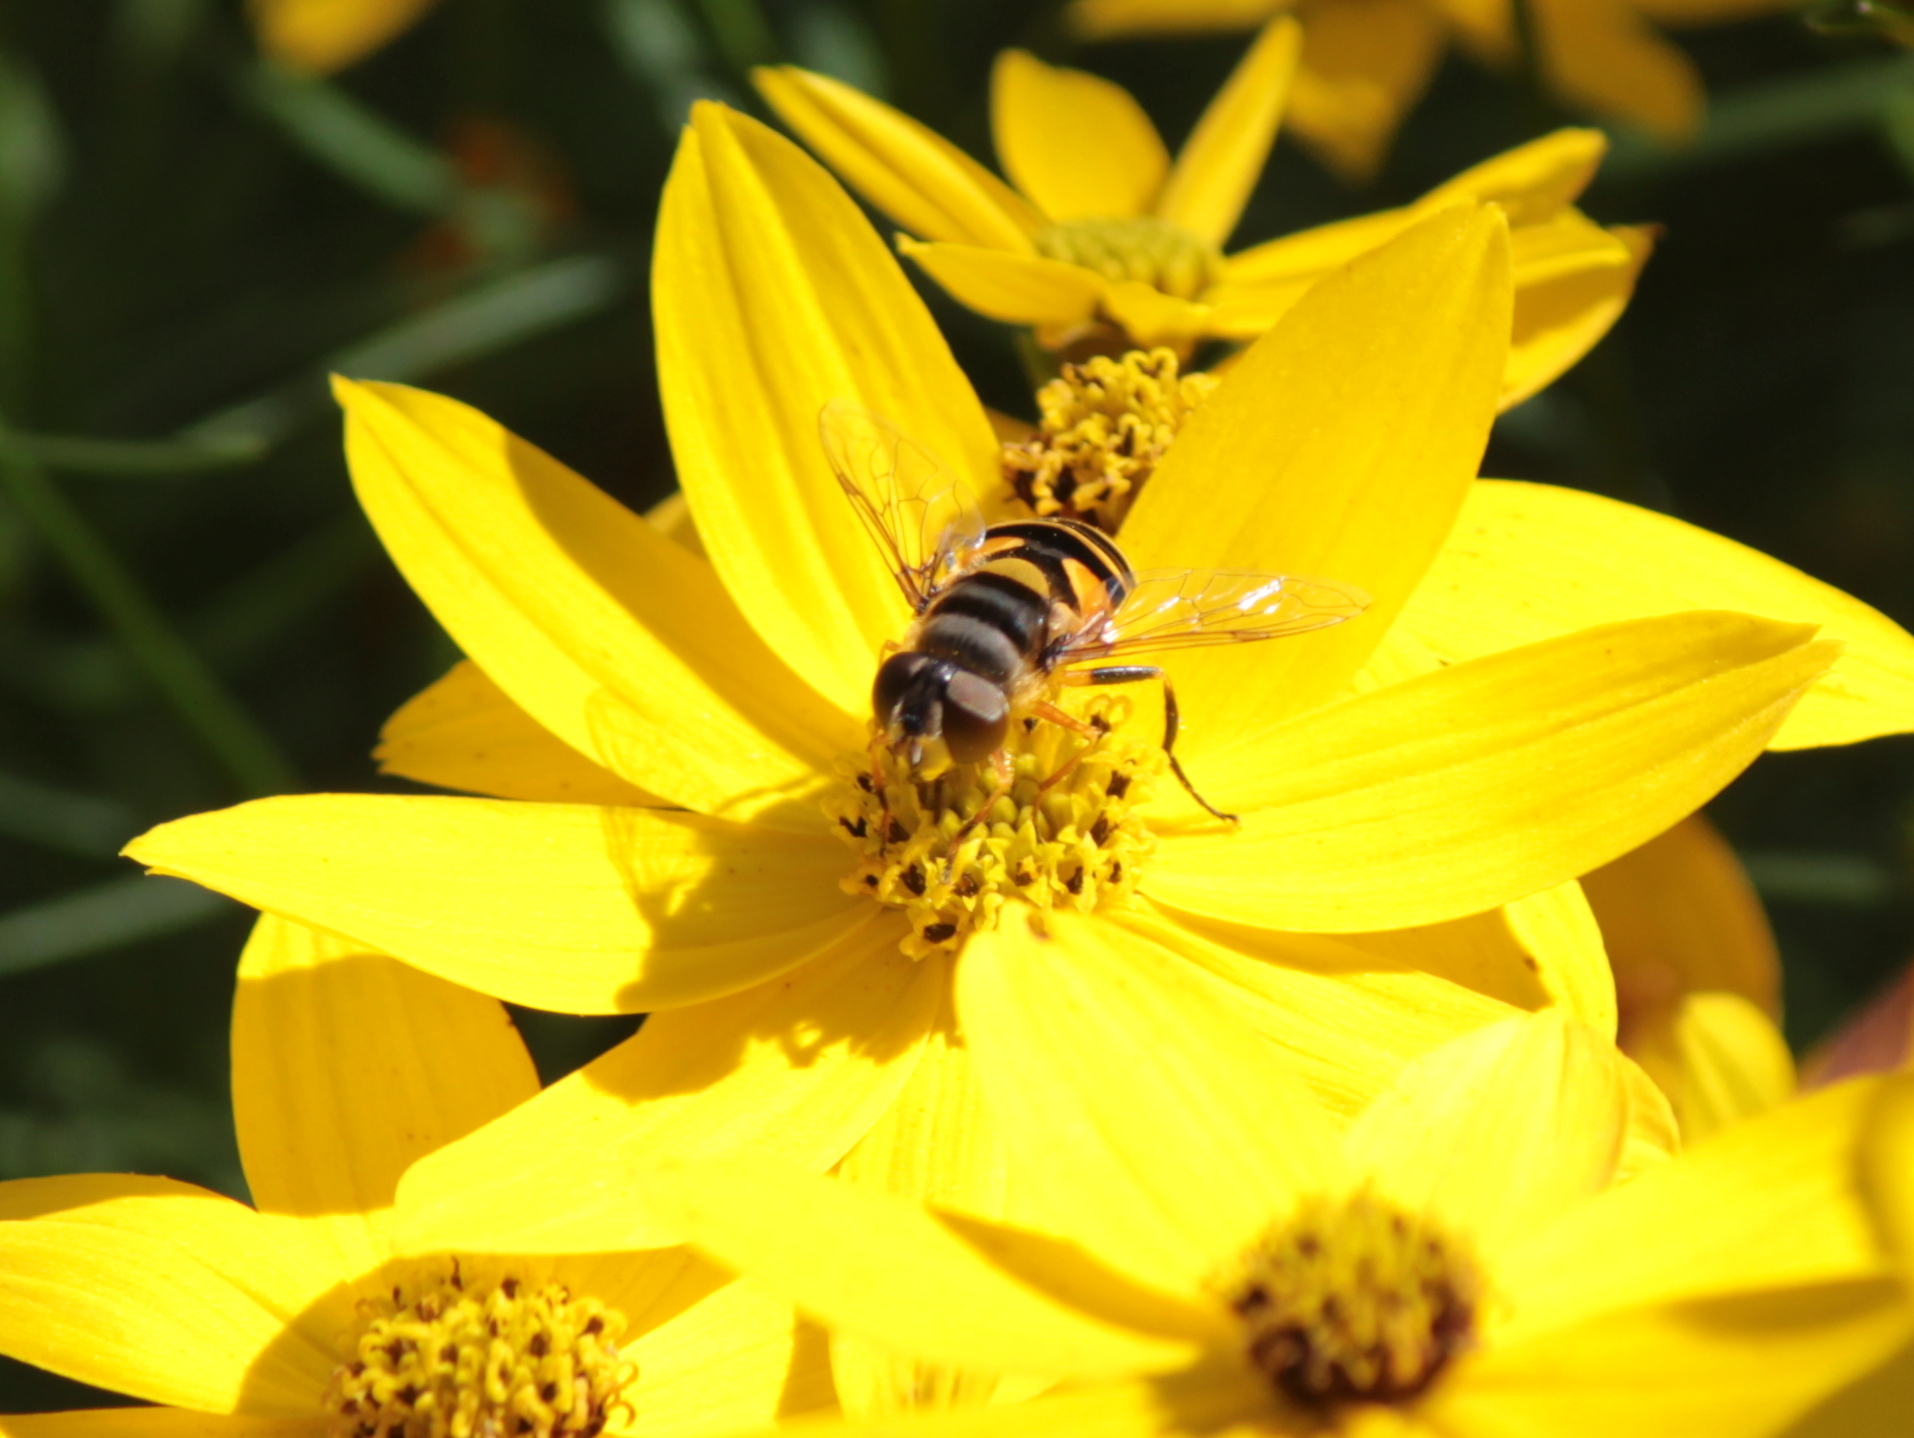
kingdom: Animalia
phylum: Arthropoda
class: Insecta
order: Diptera
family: Syrphidae
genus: Eristalis
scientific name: Eristalis transversa
